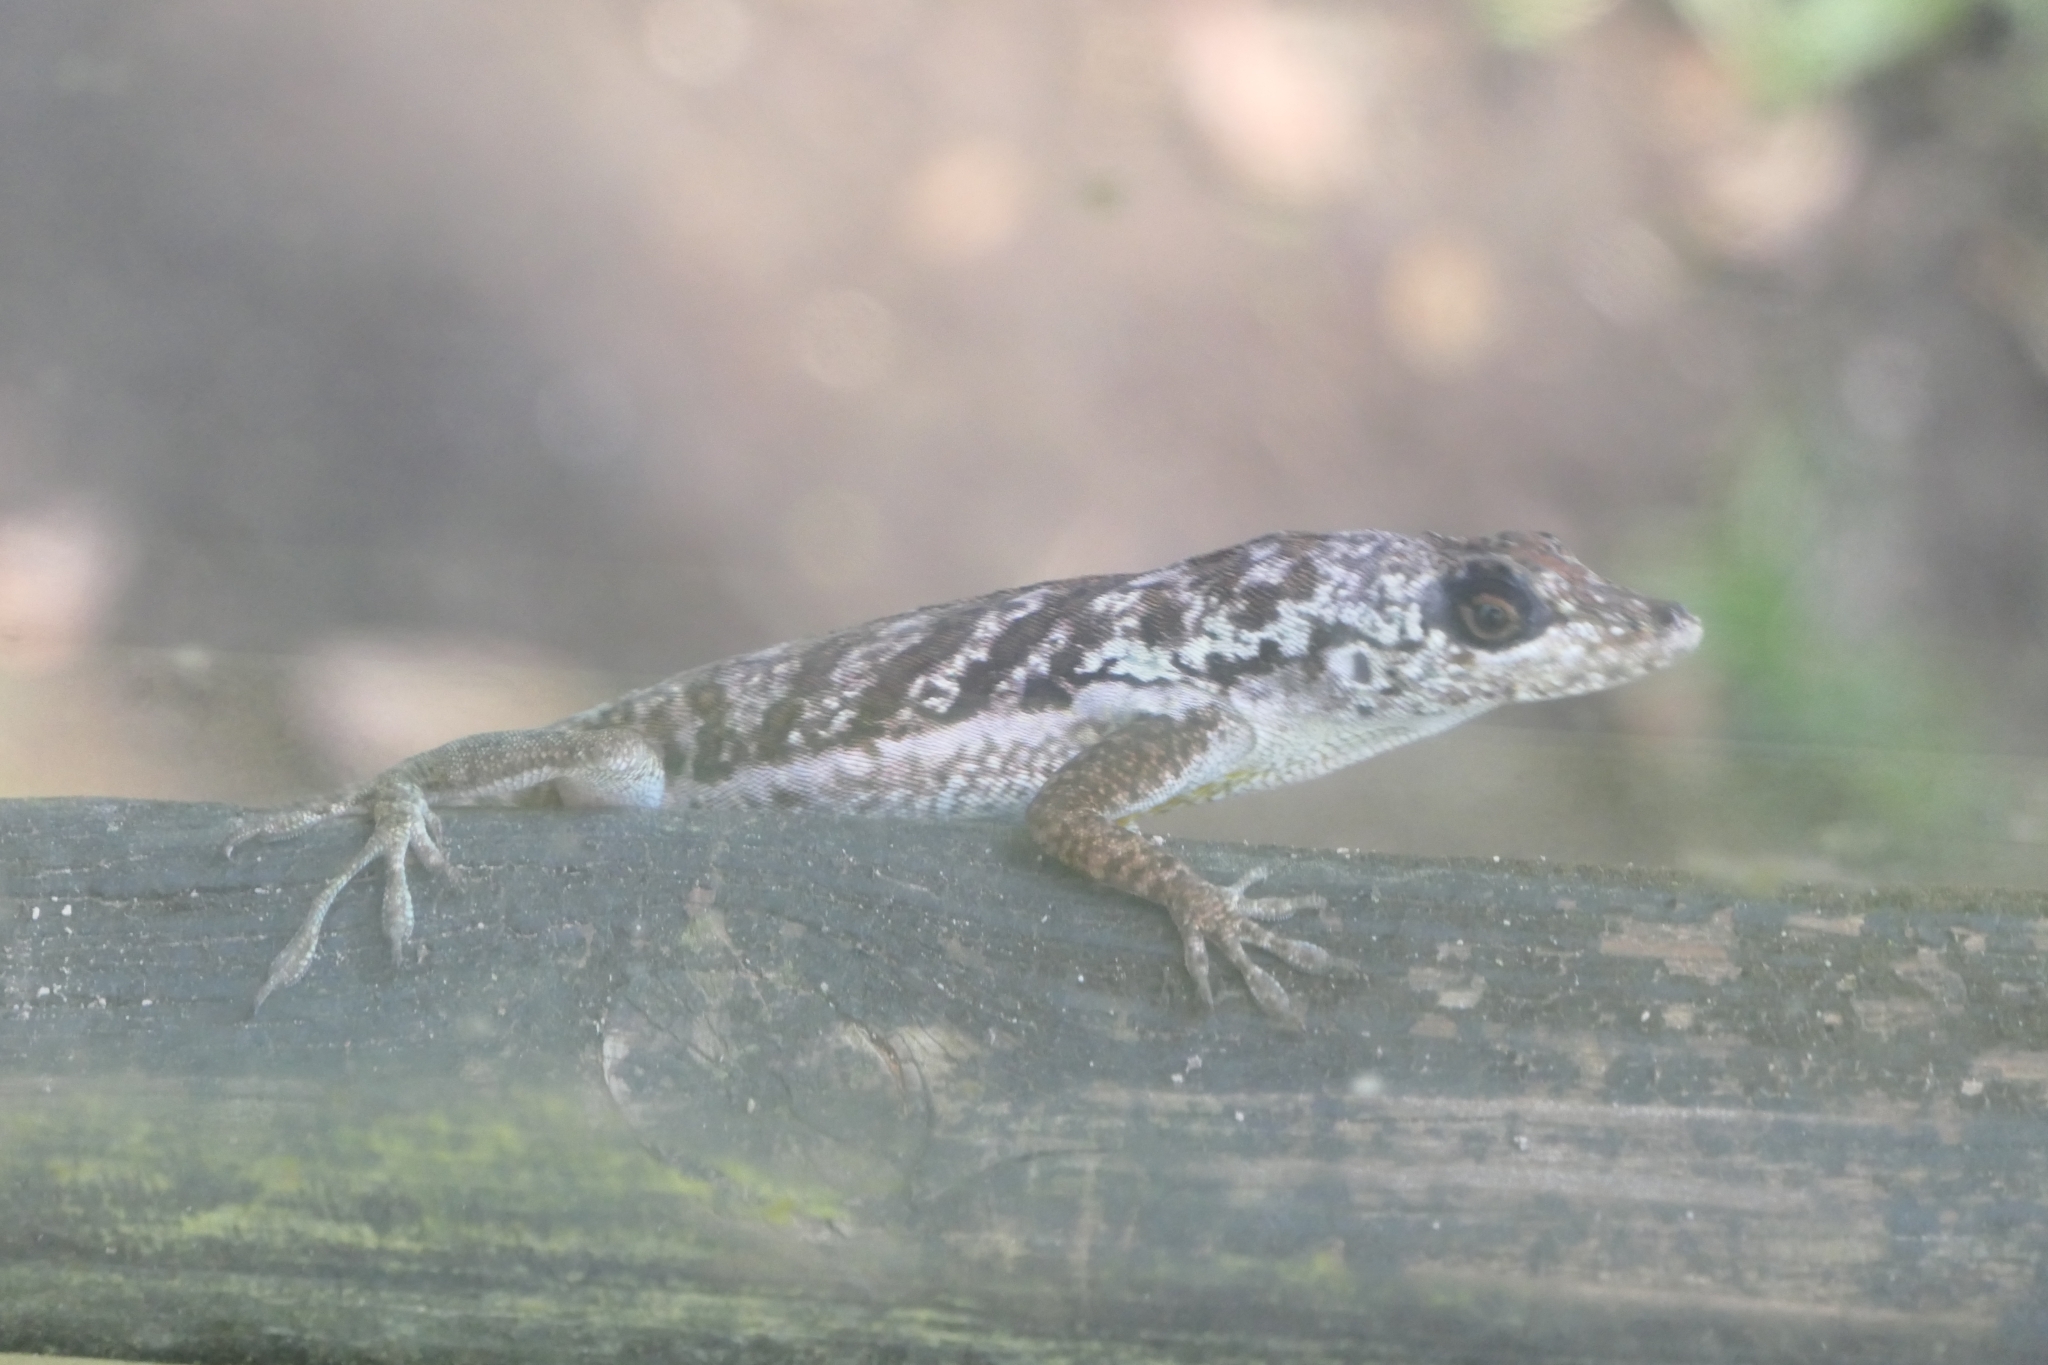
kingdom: Animalia
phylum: Chordata
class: Squamata
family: Dactyloidae
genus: Anolis
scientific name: Anolis roquet
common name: Martinique anole
